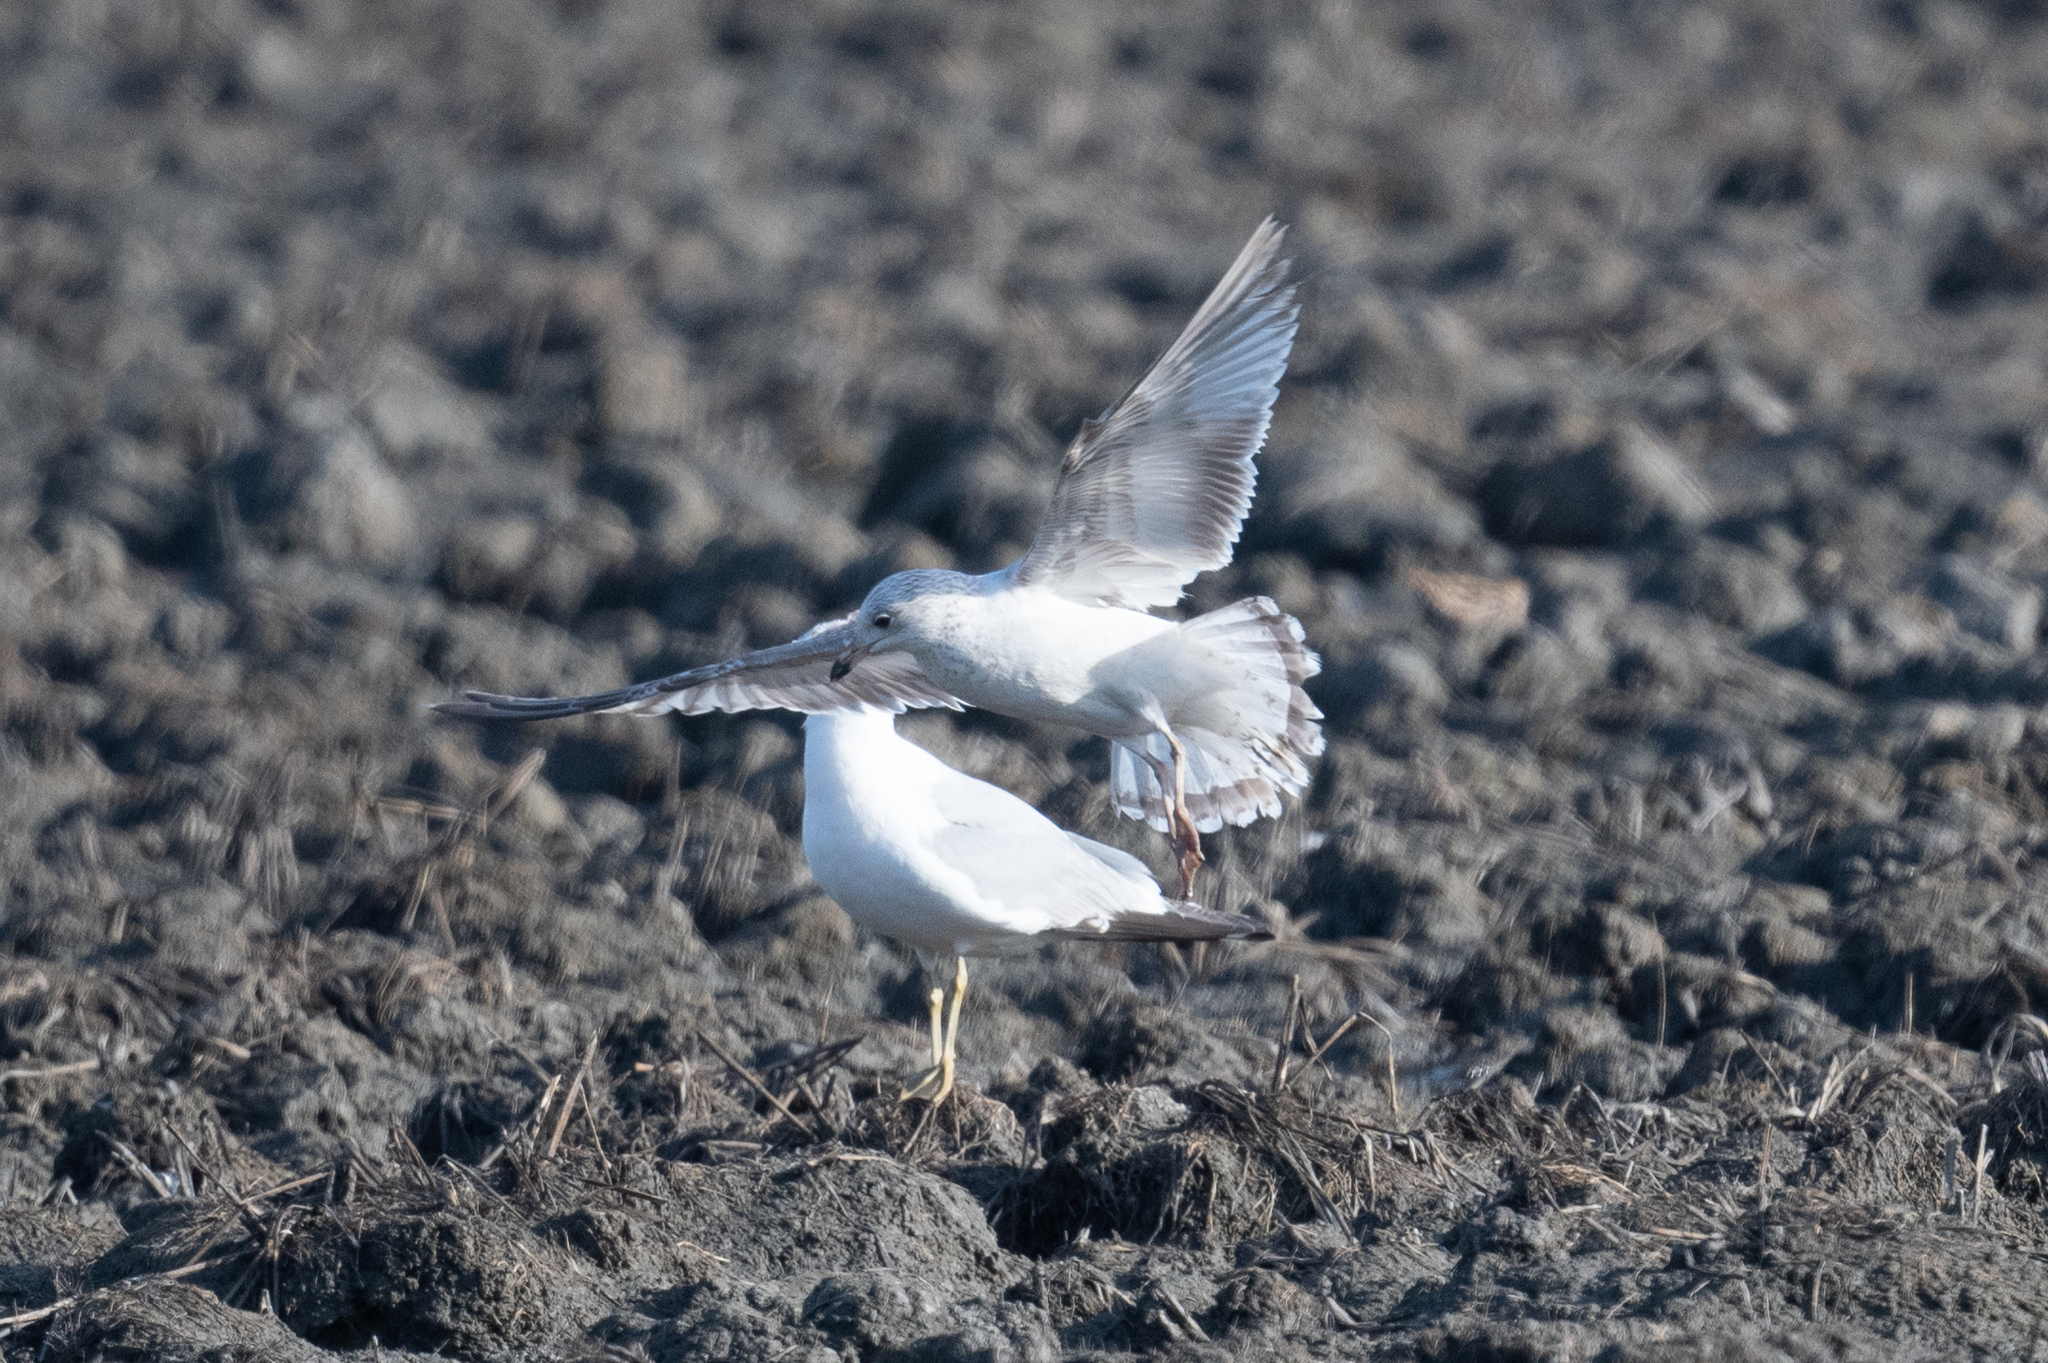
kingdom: Animalia
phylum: Chordata
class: Aves
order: Charadriiformes
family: Laridae
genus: Larus
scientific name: Larus delawarensis
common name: Ring-billed gull
